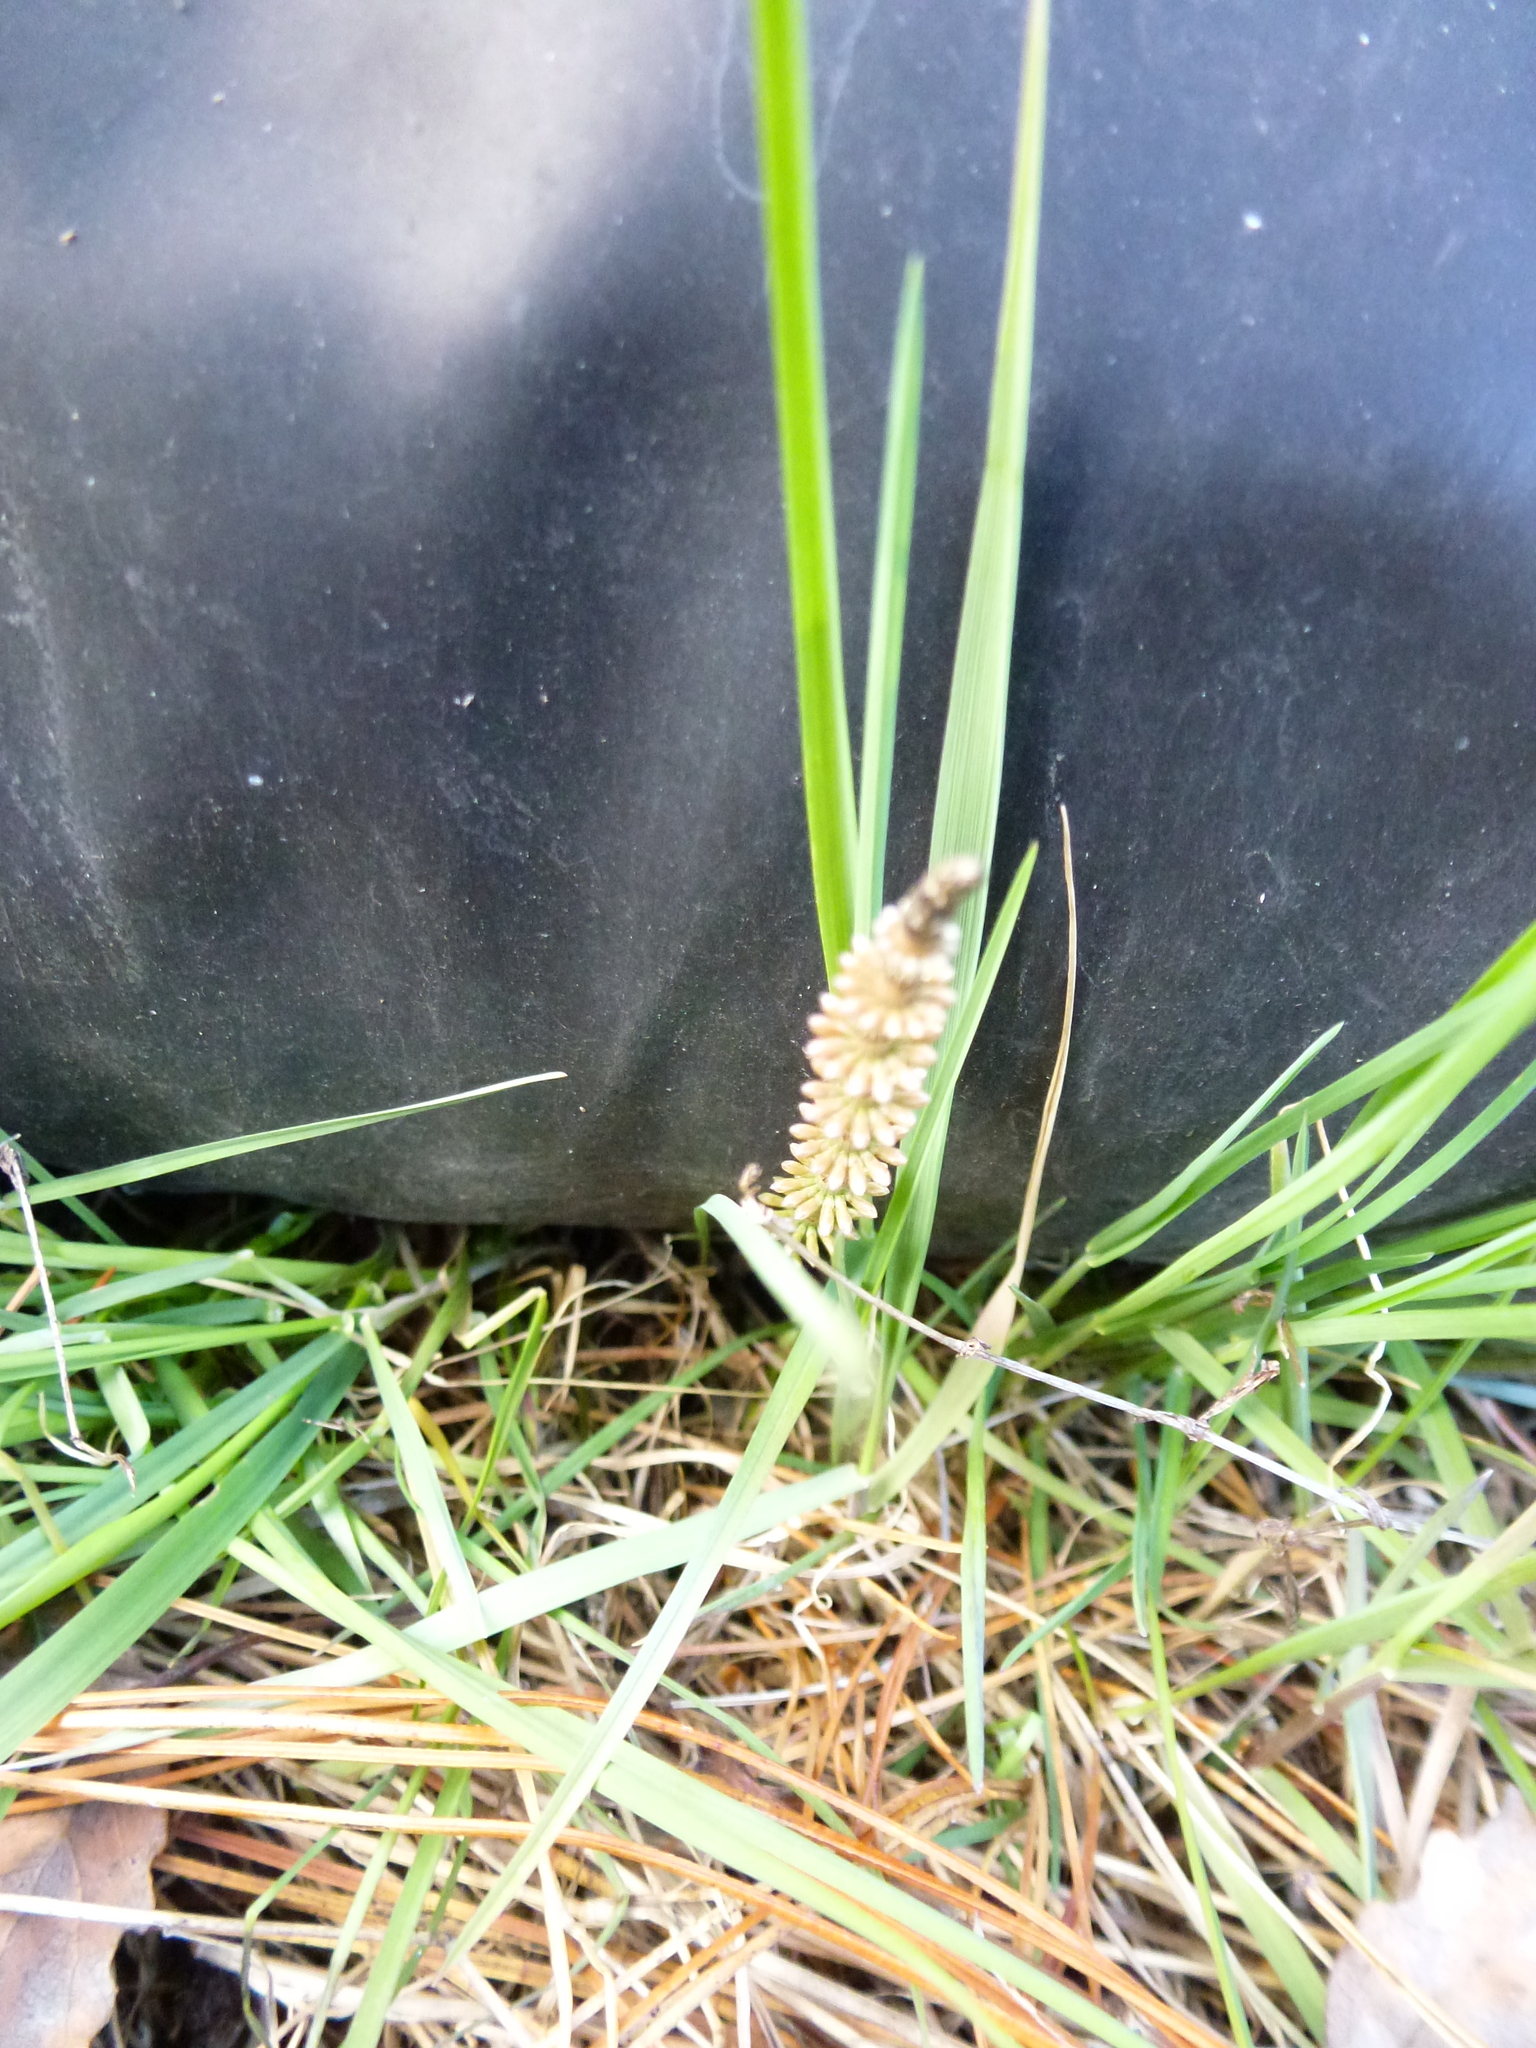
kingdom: Plantae
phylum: Tracheophyta
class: Polypodiopsida
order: Equisetales
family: Equisetaceae
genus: Equisetum
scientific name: Equisetum pratense
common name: Meadow horsetail
